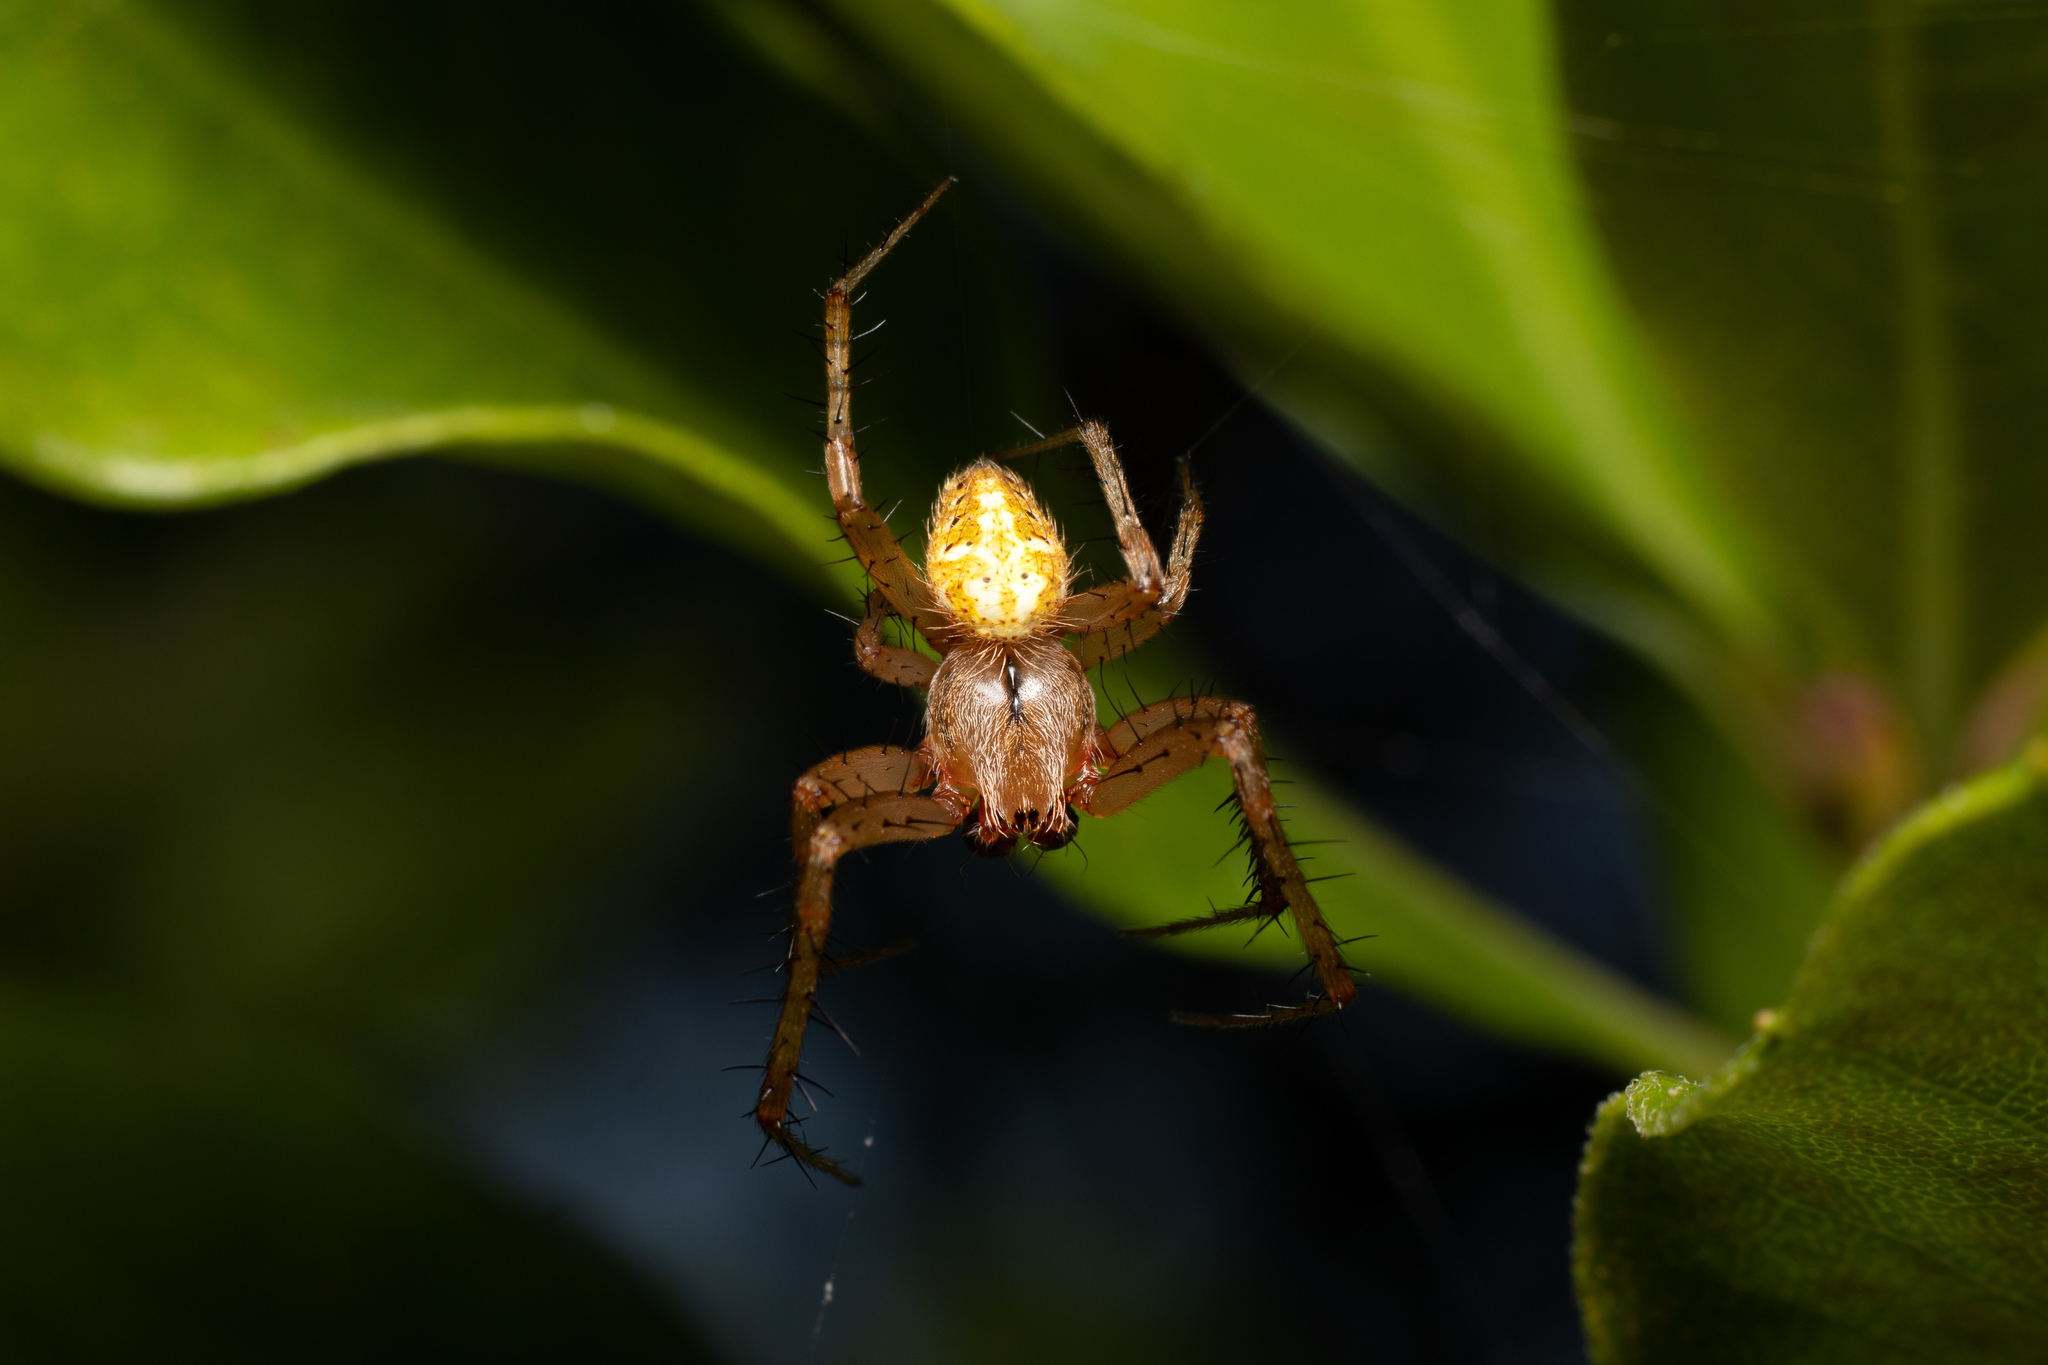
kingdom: Animalia
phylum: Arthropoda
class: Arachnida
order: Araneae
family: Araneidae
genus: Neoscona
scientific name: Neoscona arabesca
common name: Orb weavers
